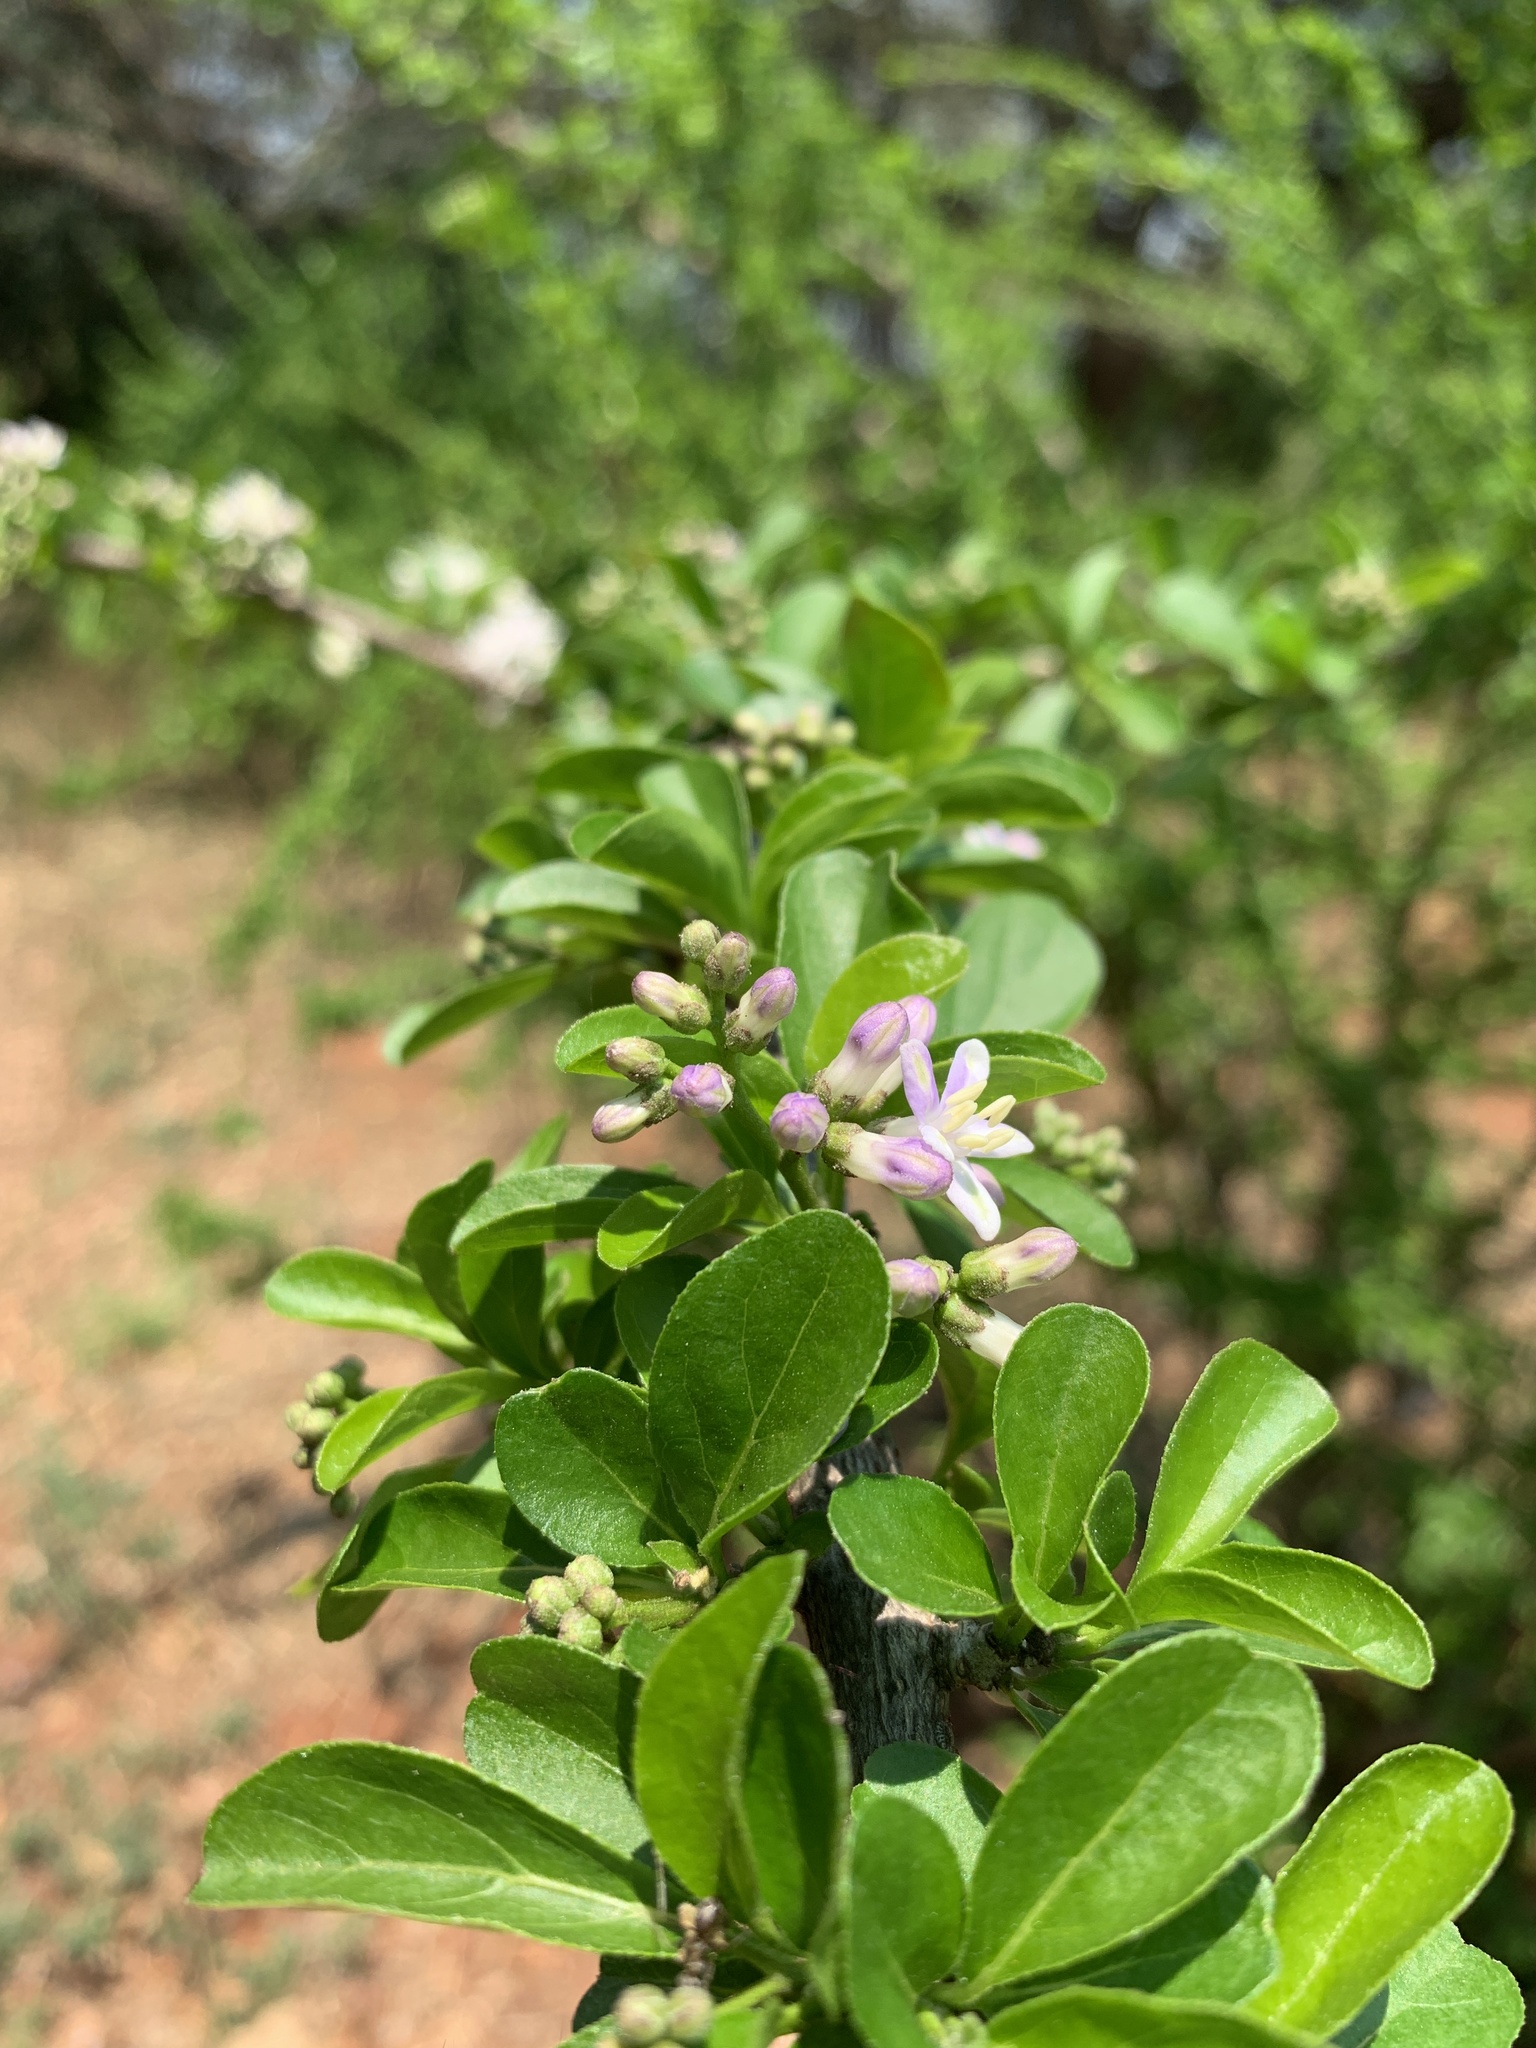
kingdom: Plantae
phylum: Tracheophyta
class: Magnoliopsida
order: Boraginales
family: Ehretiaceae
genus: Ehretia
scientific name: Ehretia rigida
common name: Cape lilac
